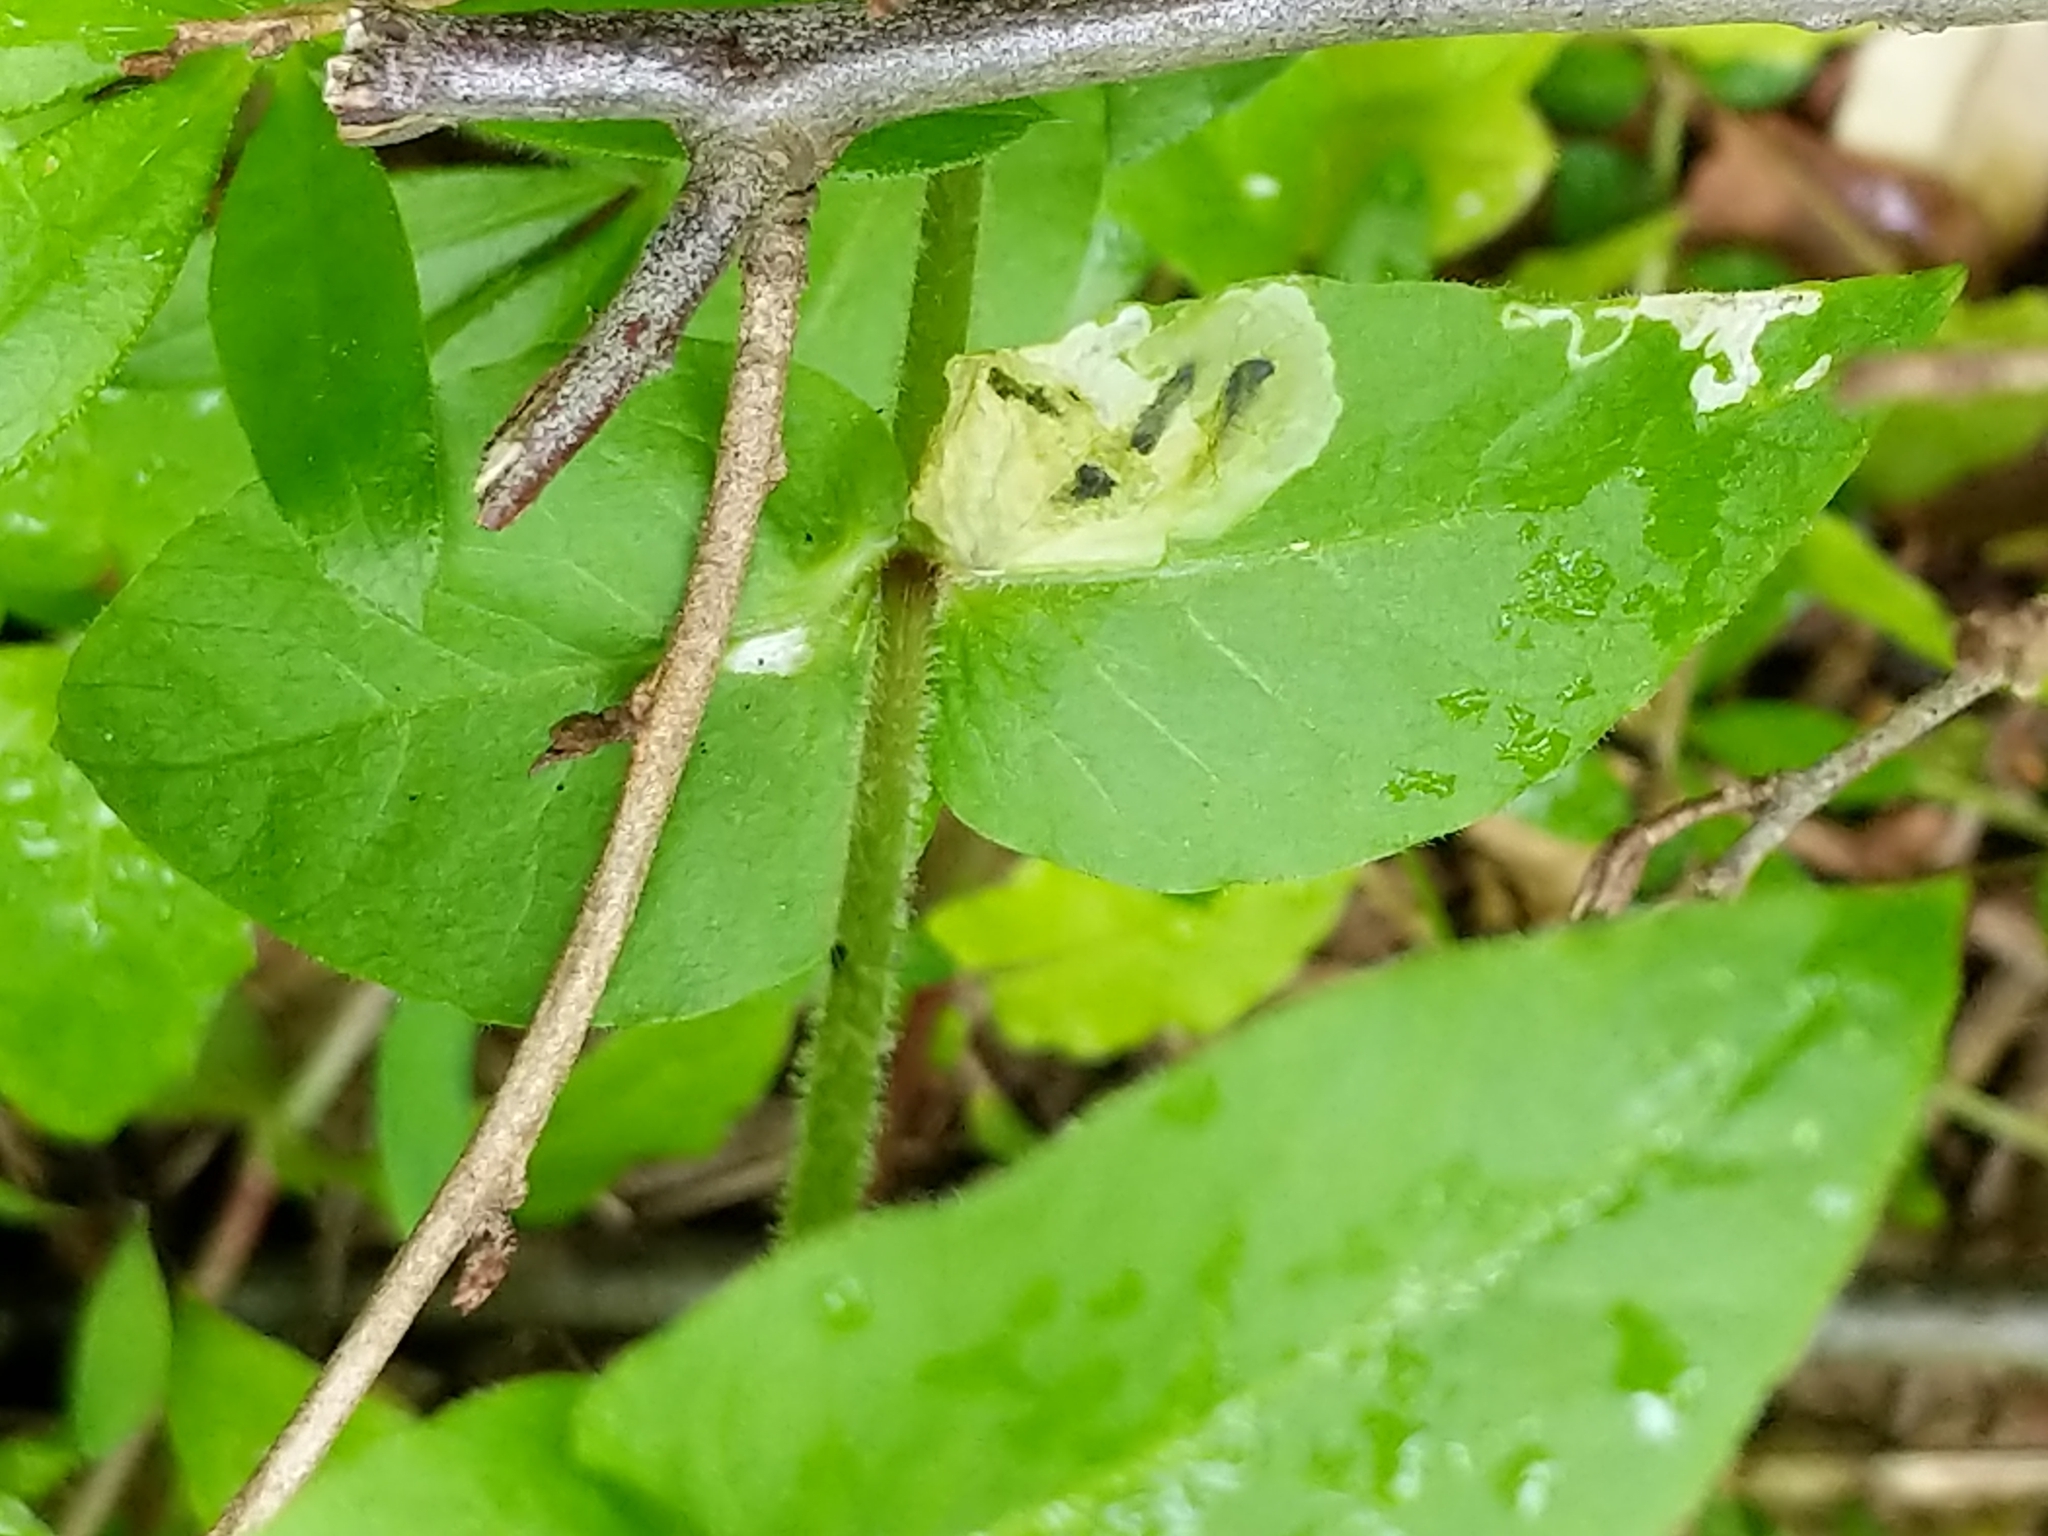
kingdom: Plantae
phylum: Tracheophyta
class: Magnoliopsida
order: Caryophyllales
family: Caryophyllaceae
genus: Stellaria
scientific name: Stellaria aquatica
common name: Water chickweed
